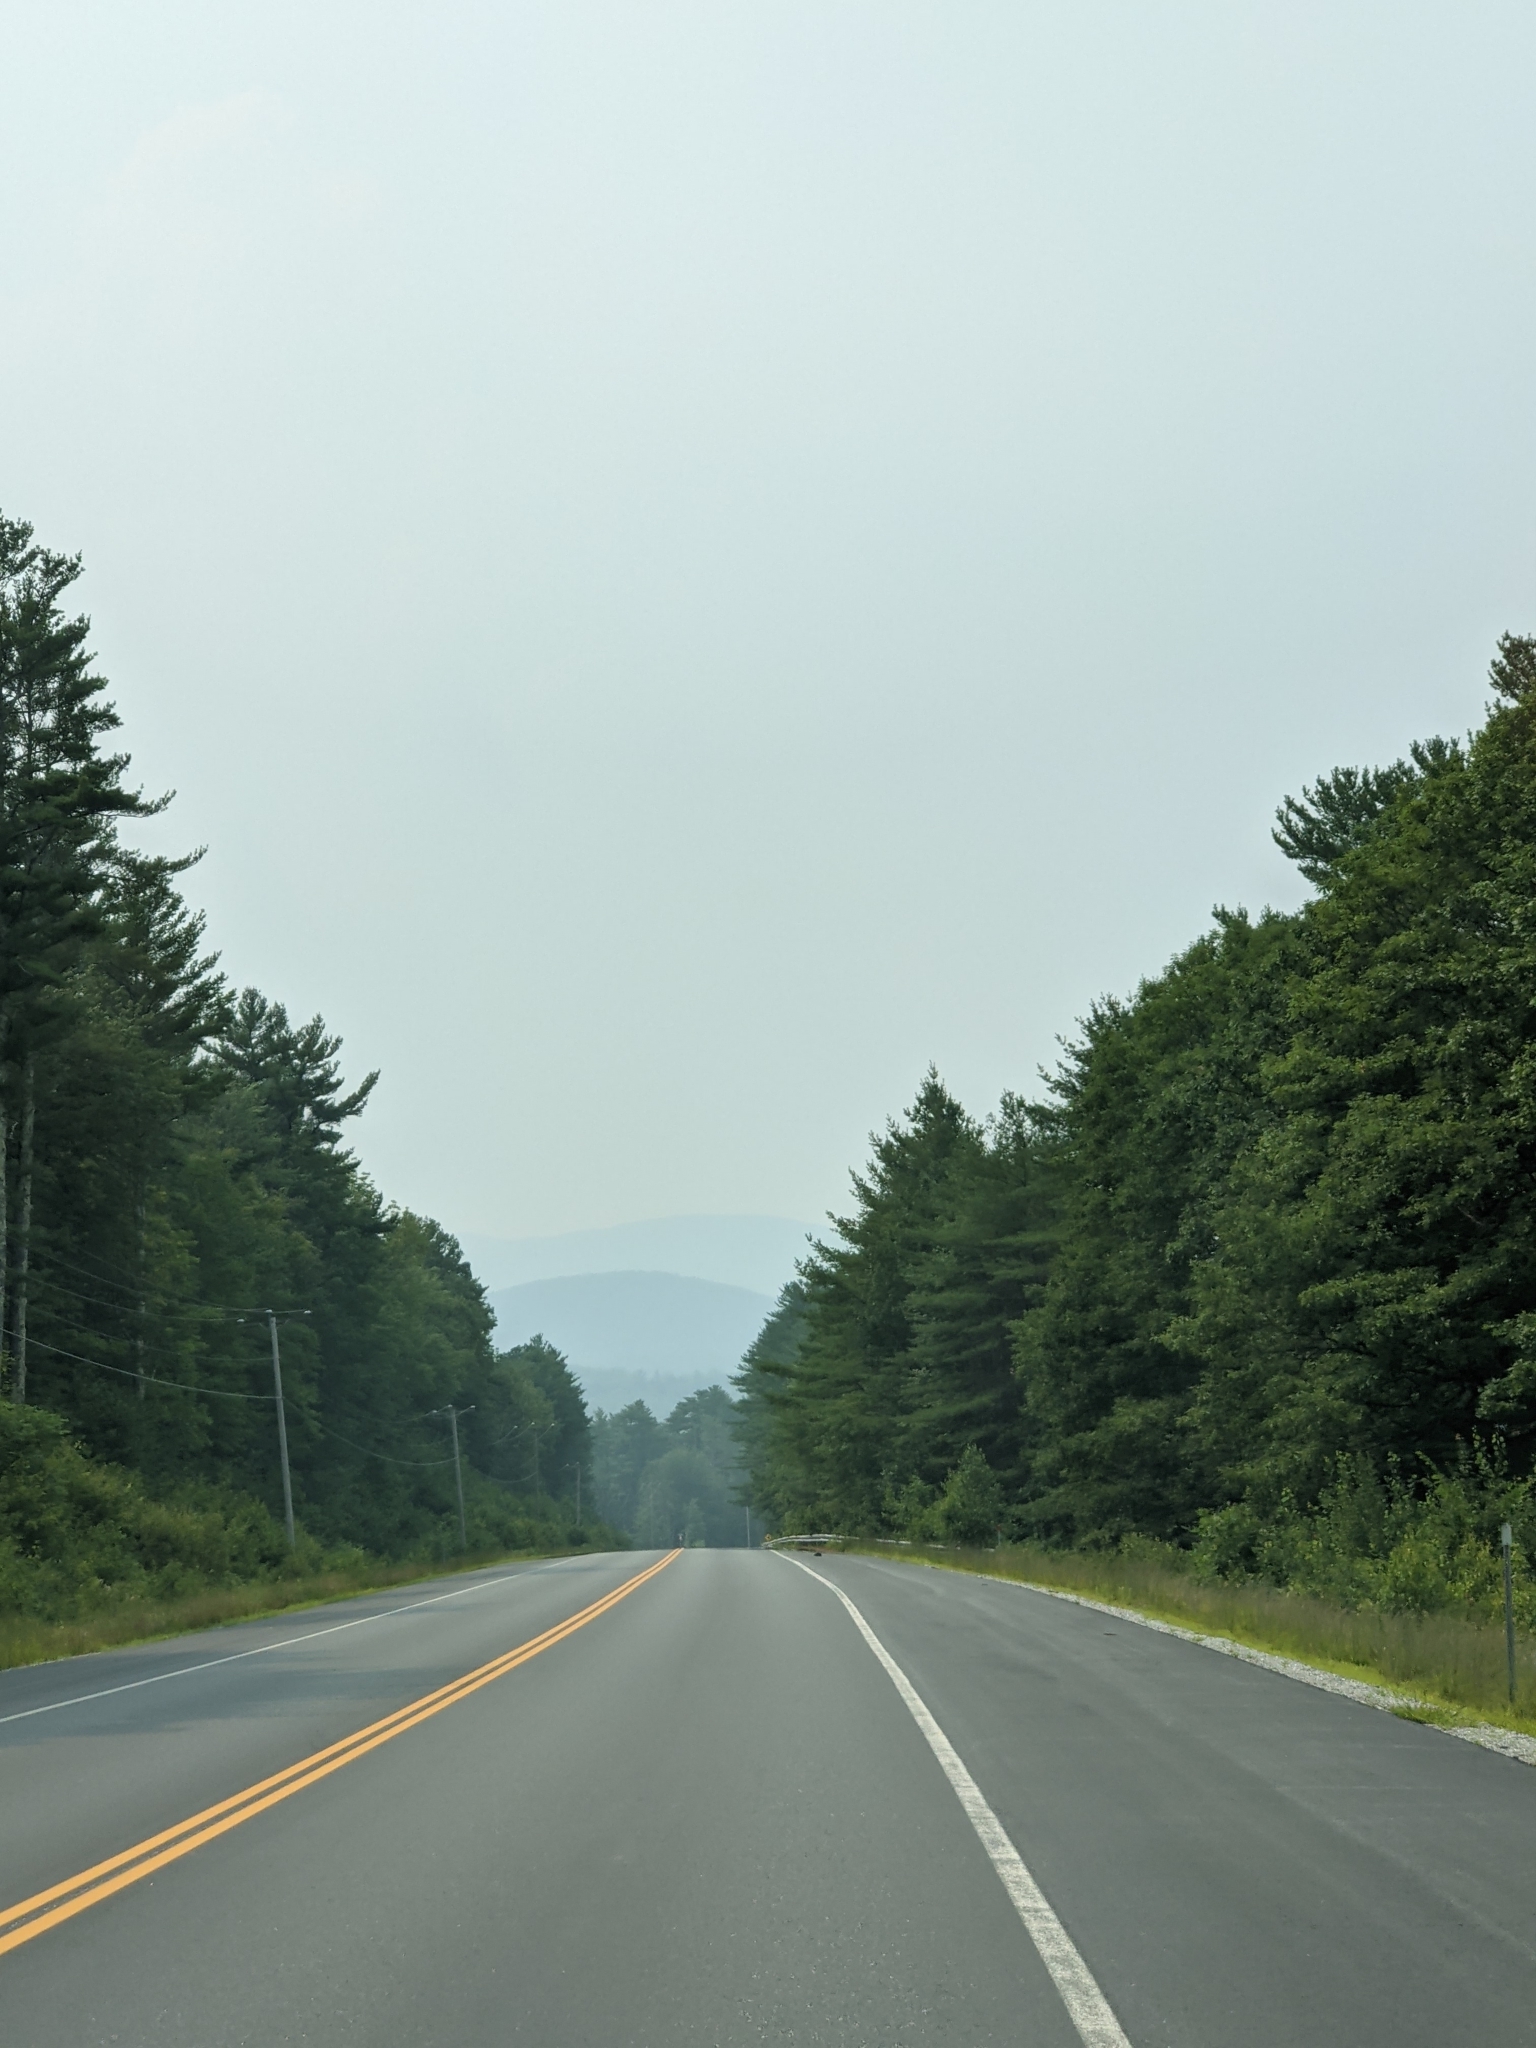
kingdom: Plantae
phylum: Tracheophyta
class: Pinopsida
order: Pinales
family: Pinaceae
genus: Pinus
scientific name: Pinus strobus
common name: Weymouth pine
